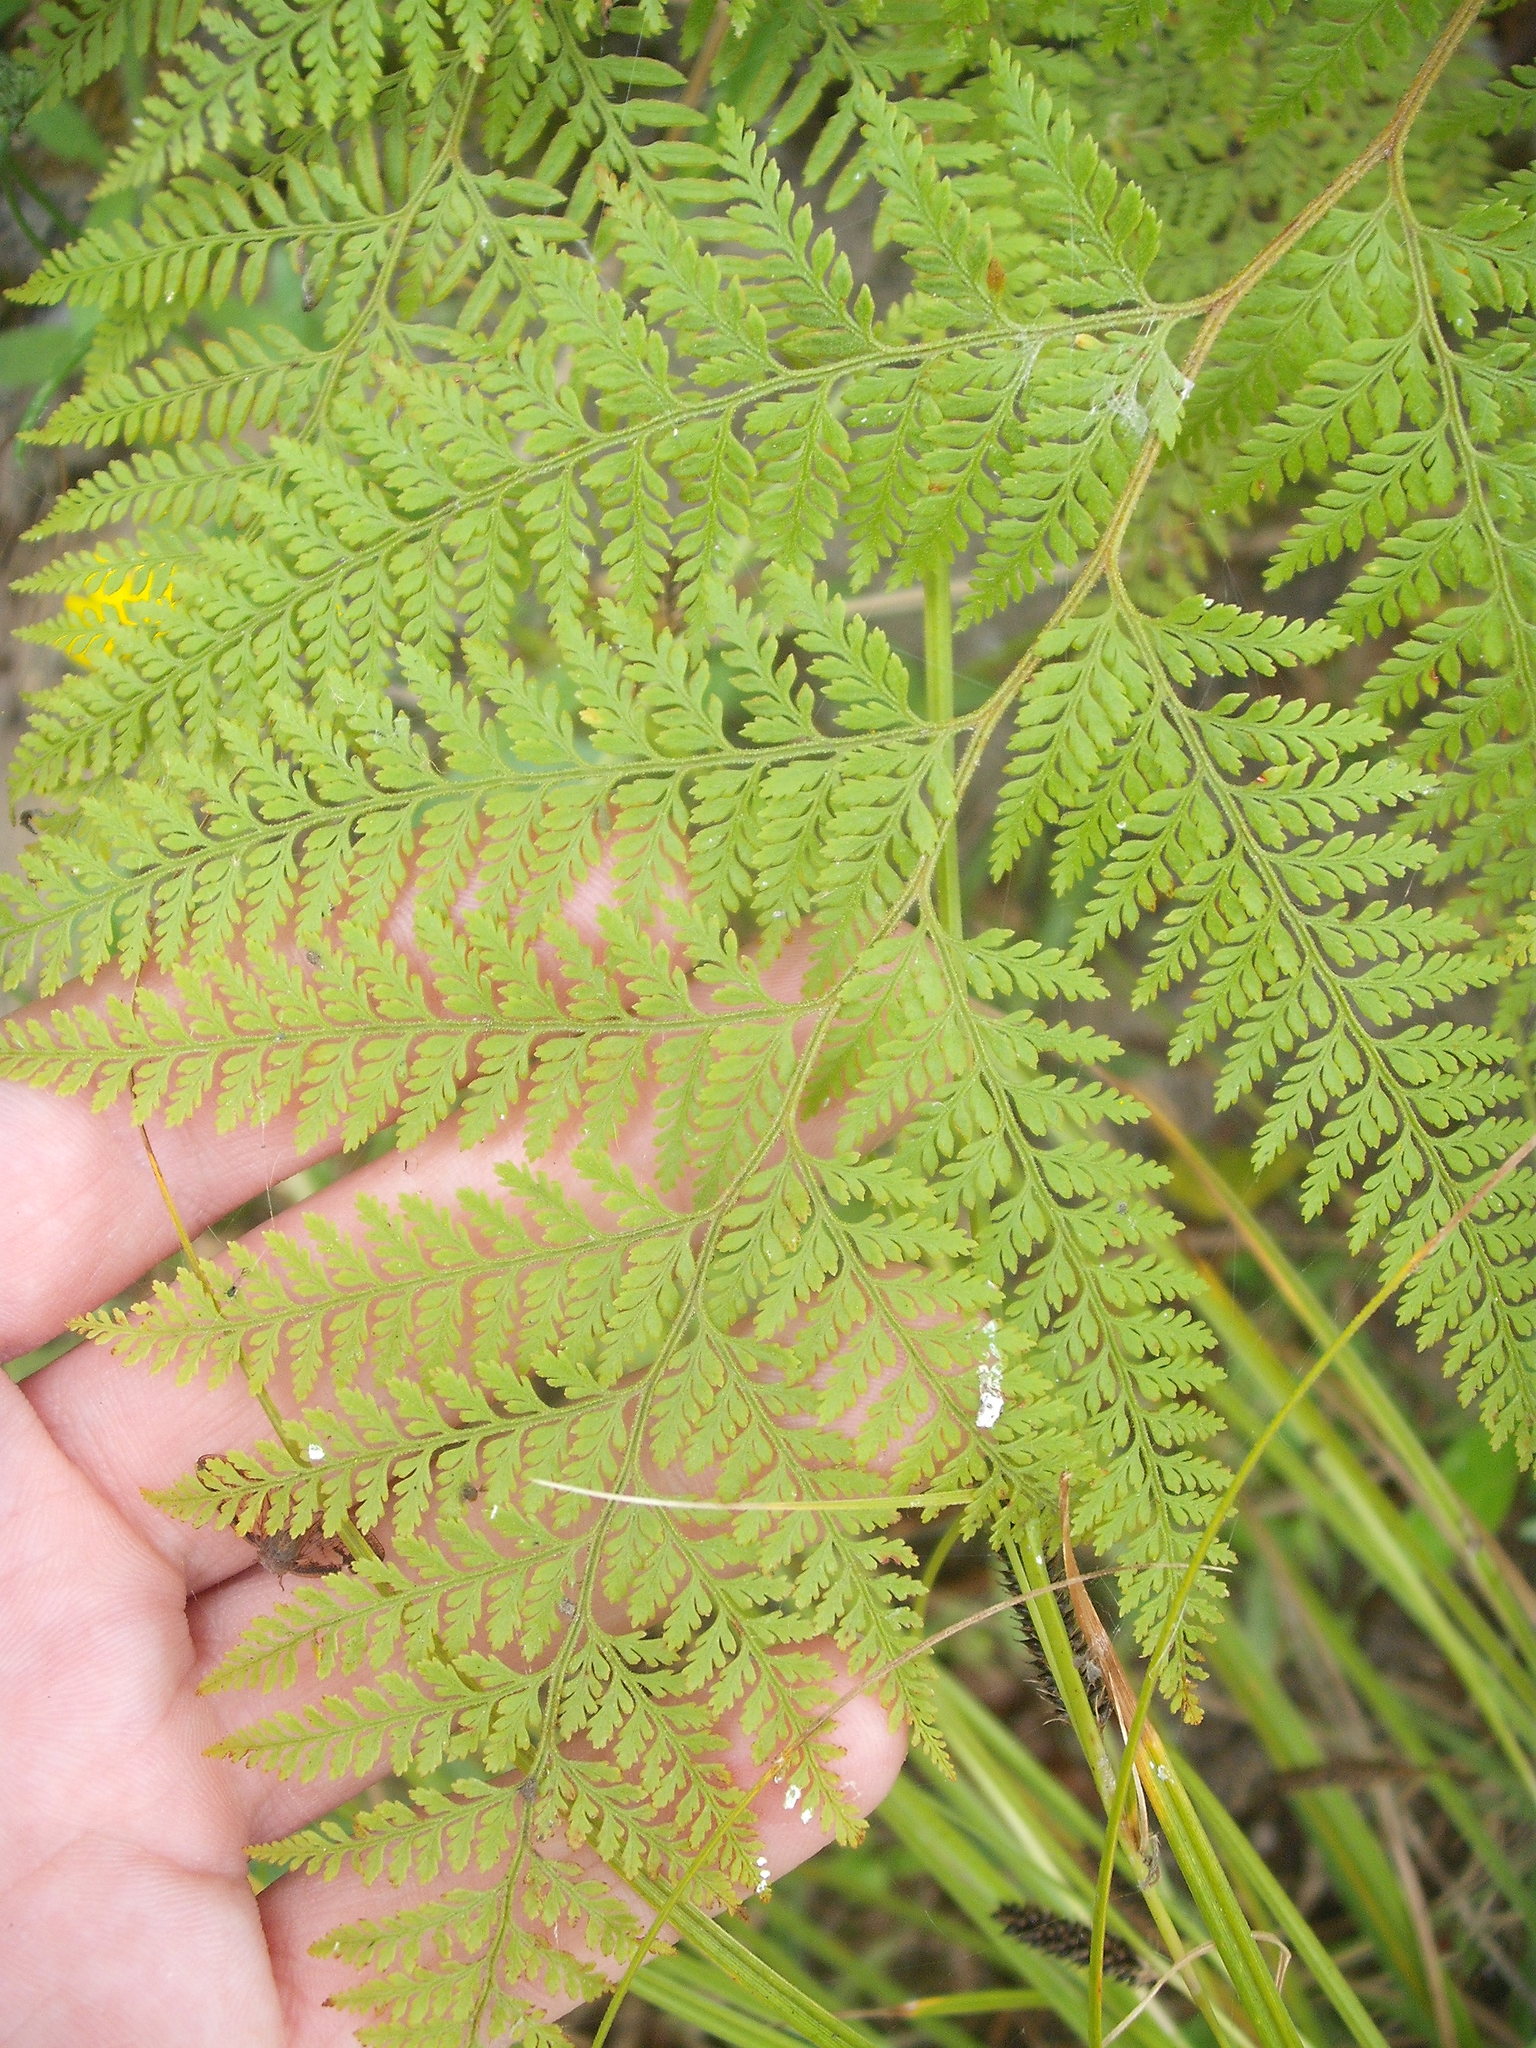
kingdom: Plantae
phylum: Tracheophyta
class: Polypodiopsida
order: Polypodiales
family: Dennstaedtiaceae
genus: Paesia
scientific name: Paesia scaberula
